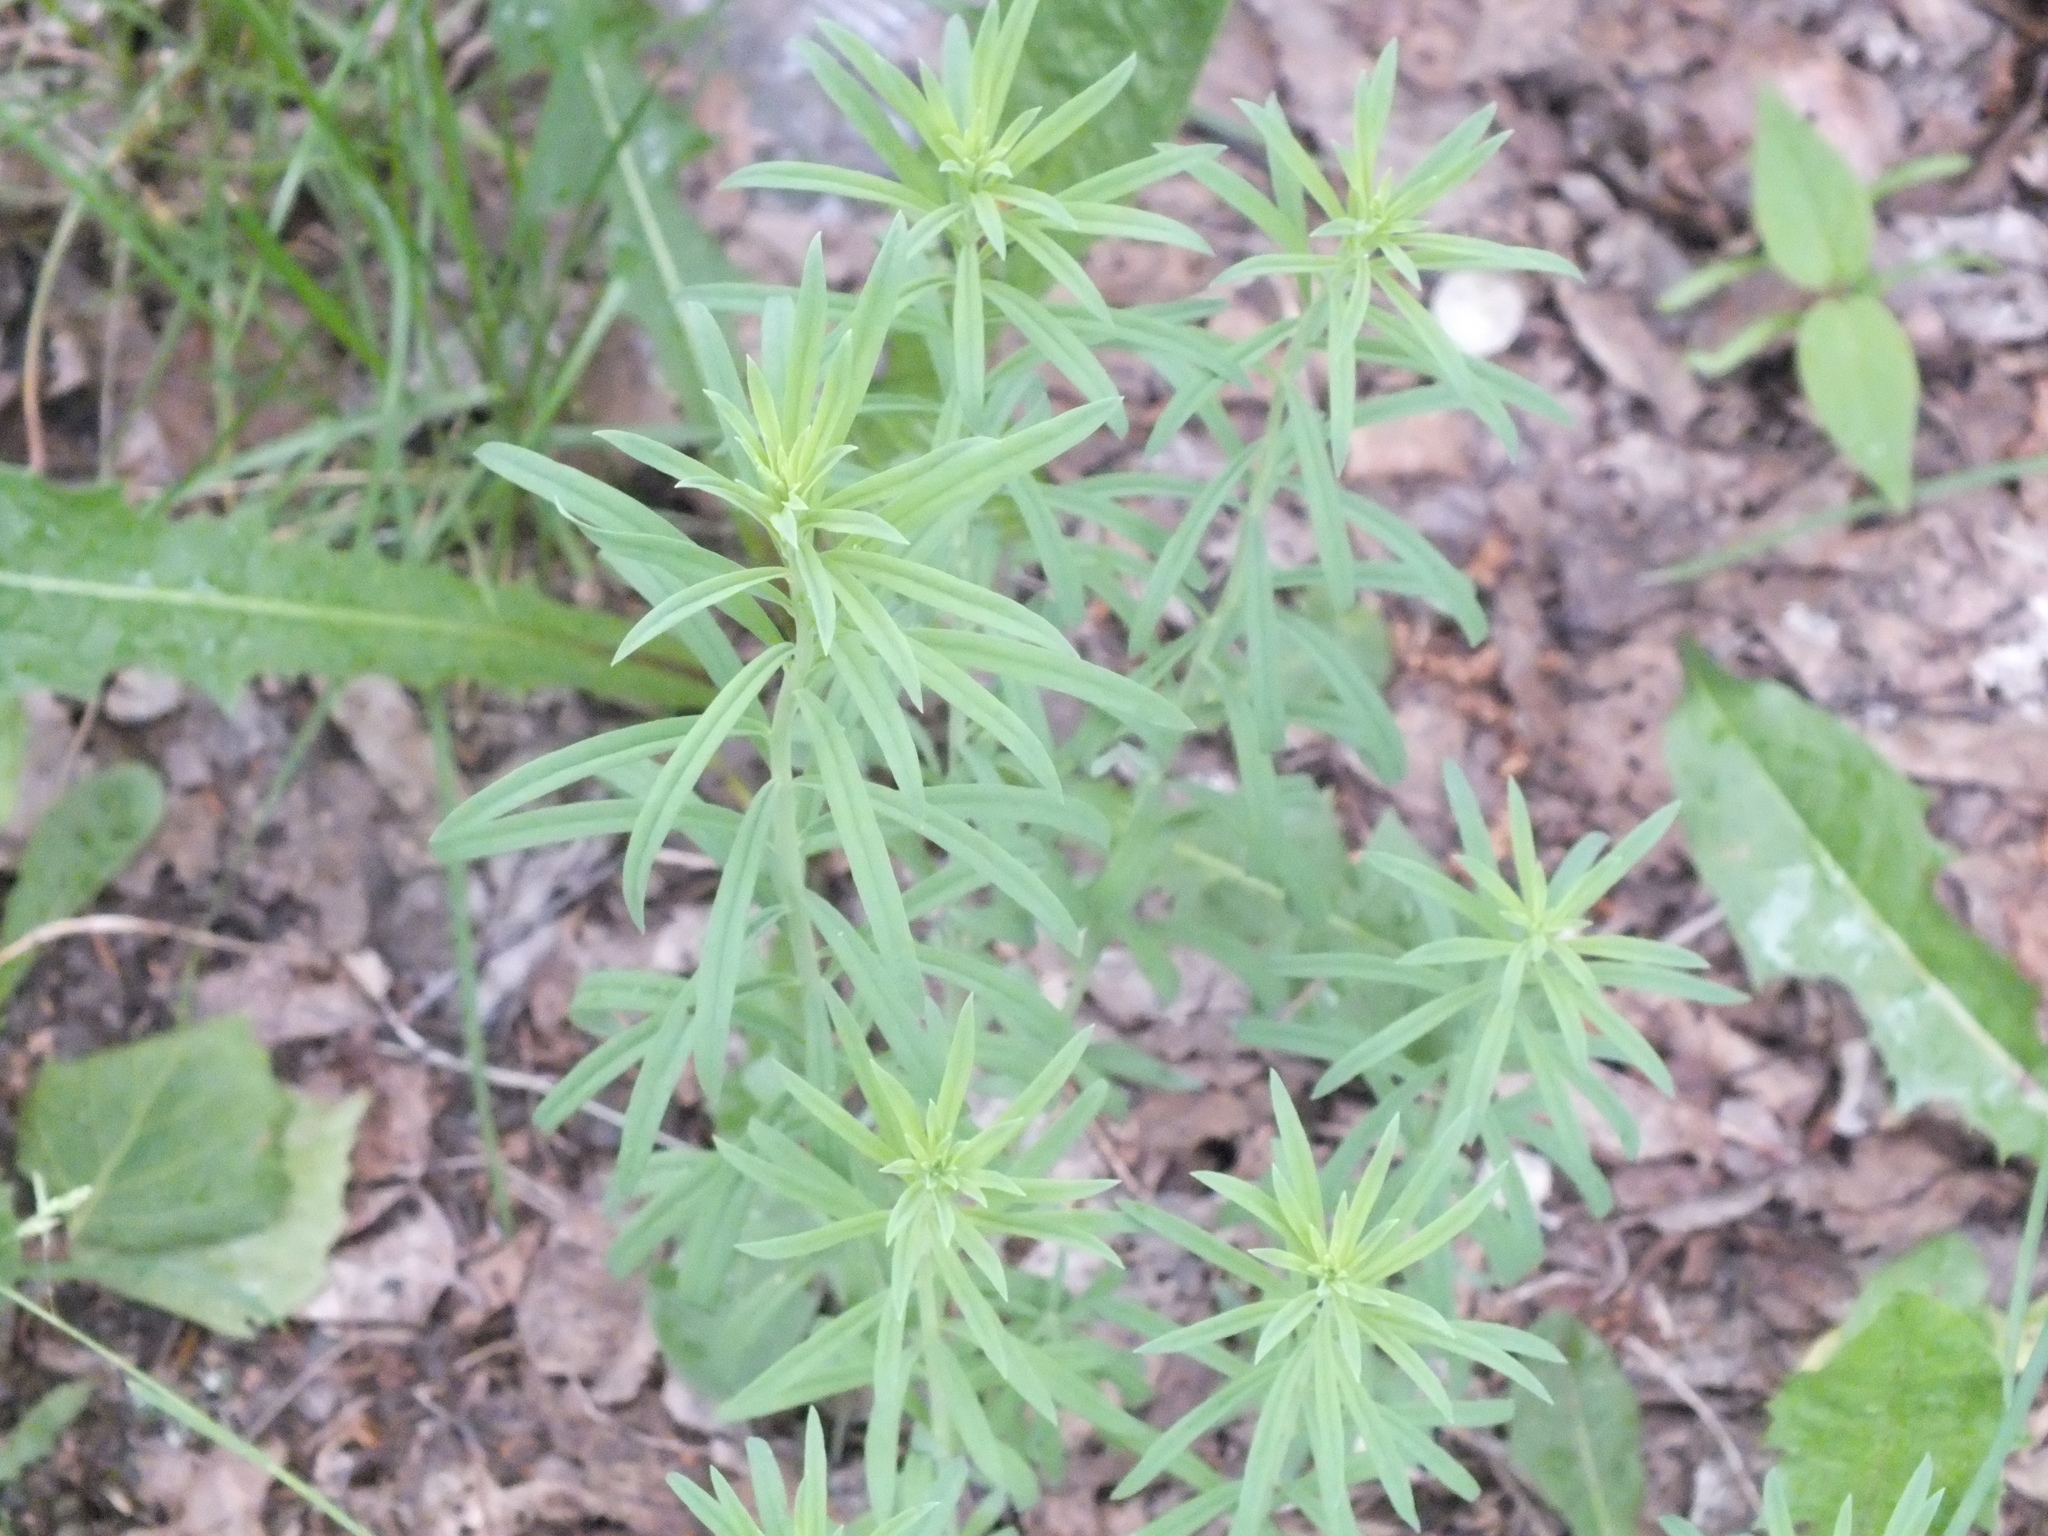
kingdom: Plantae
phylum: Tracheophyta
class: Magnoliopsida
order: Lamiales
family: Plantaginaceae
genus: Linaria
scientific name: Linaria vulgaris
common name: Butter and eggs
